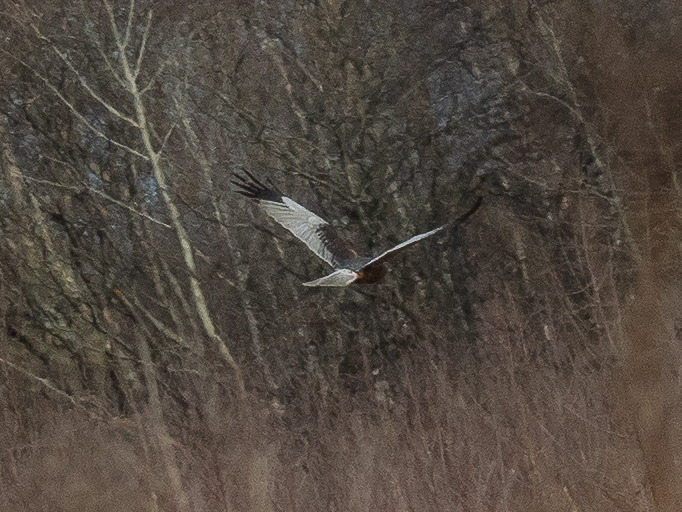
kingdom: Animalia
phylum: Chordata
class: Aves
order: Accipitriformes
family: Accipitridae
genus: Circus
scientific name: Circus aeruginosus
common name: Western marsh harrier
